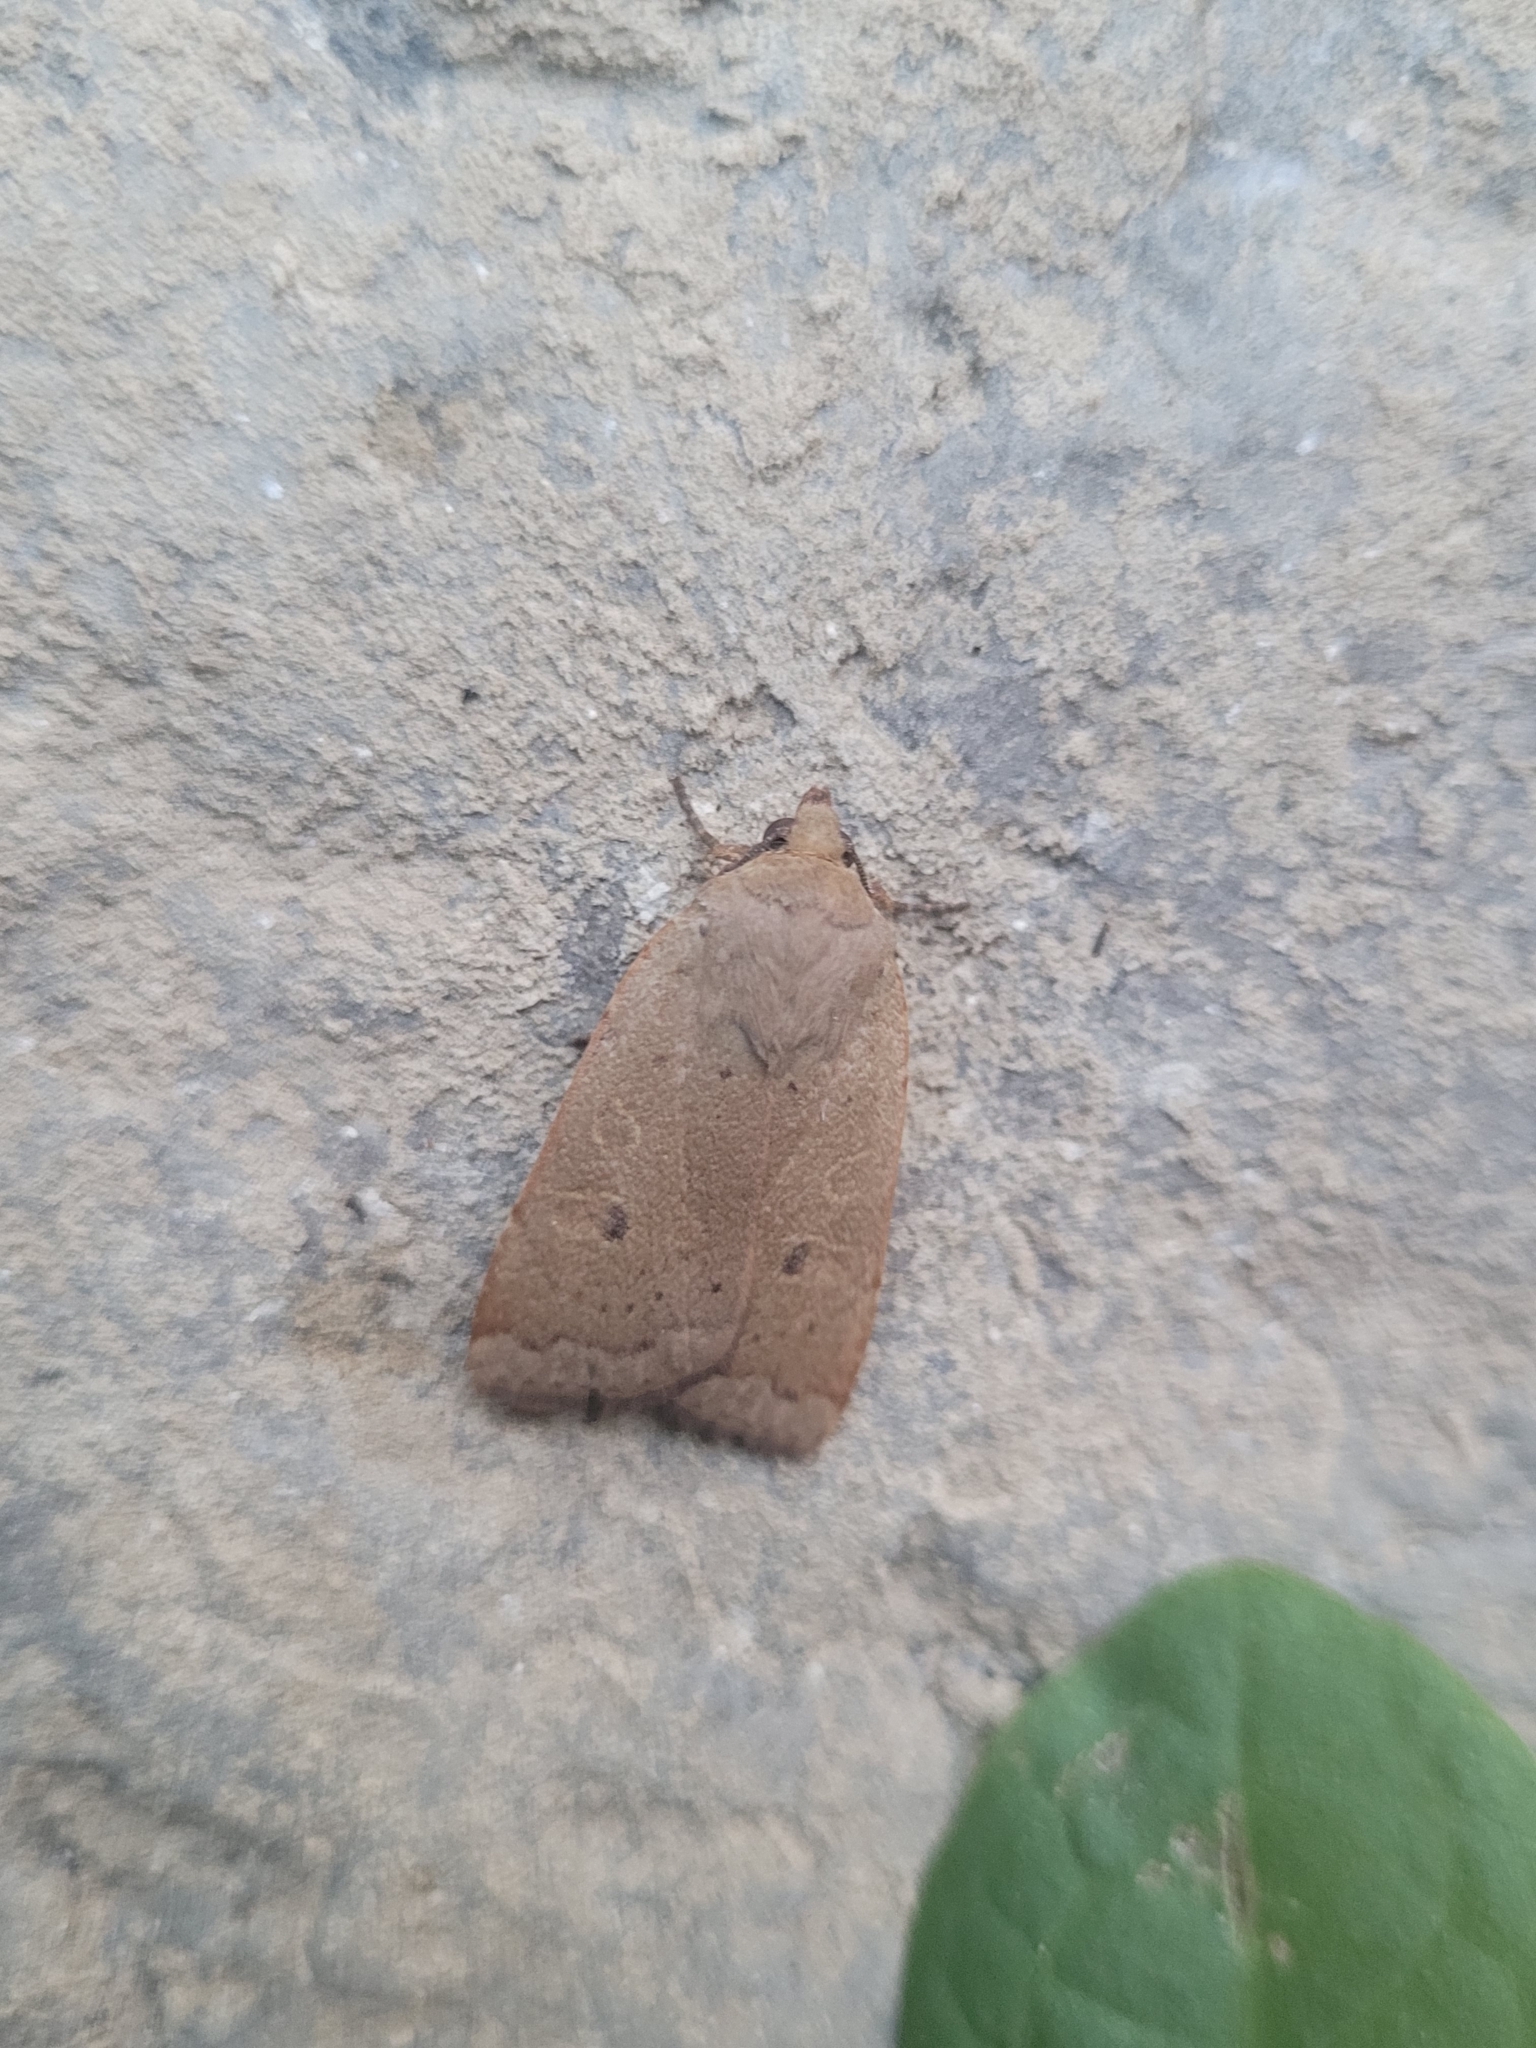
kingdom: Animalia
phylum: Arthropoda
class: Insecta
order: Lepidoptera
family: Noctuidae
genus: Noctua
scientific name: Noctua comes
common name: Lesser yellow underwing
